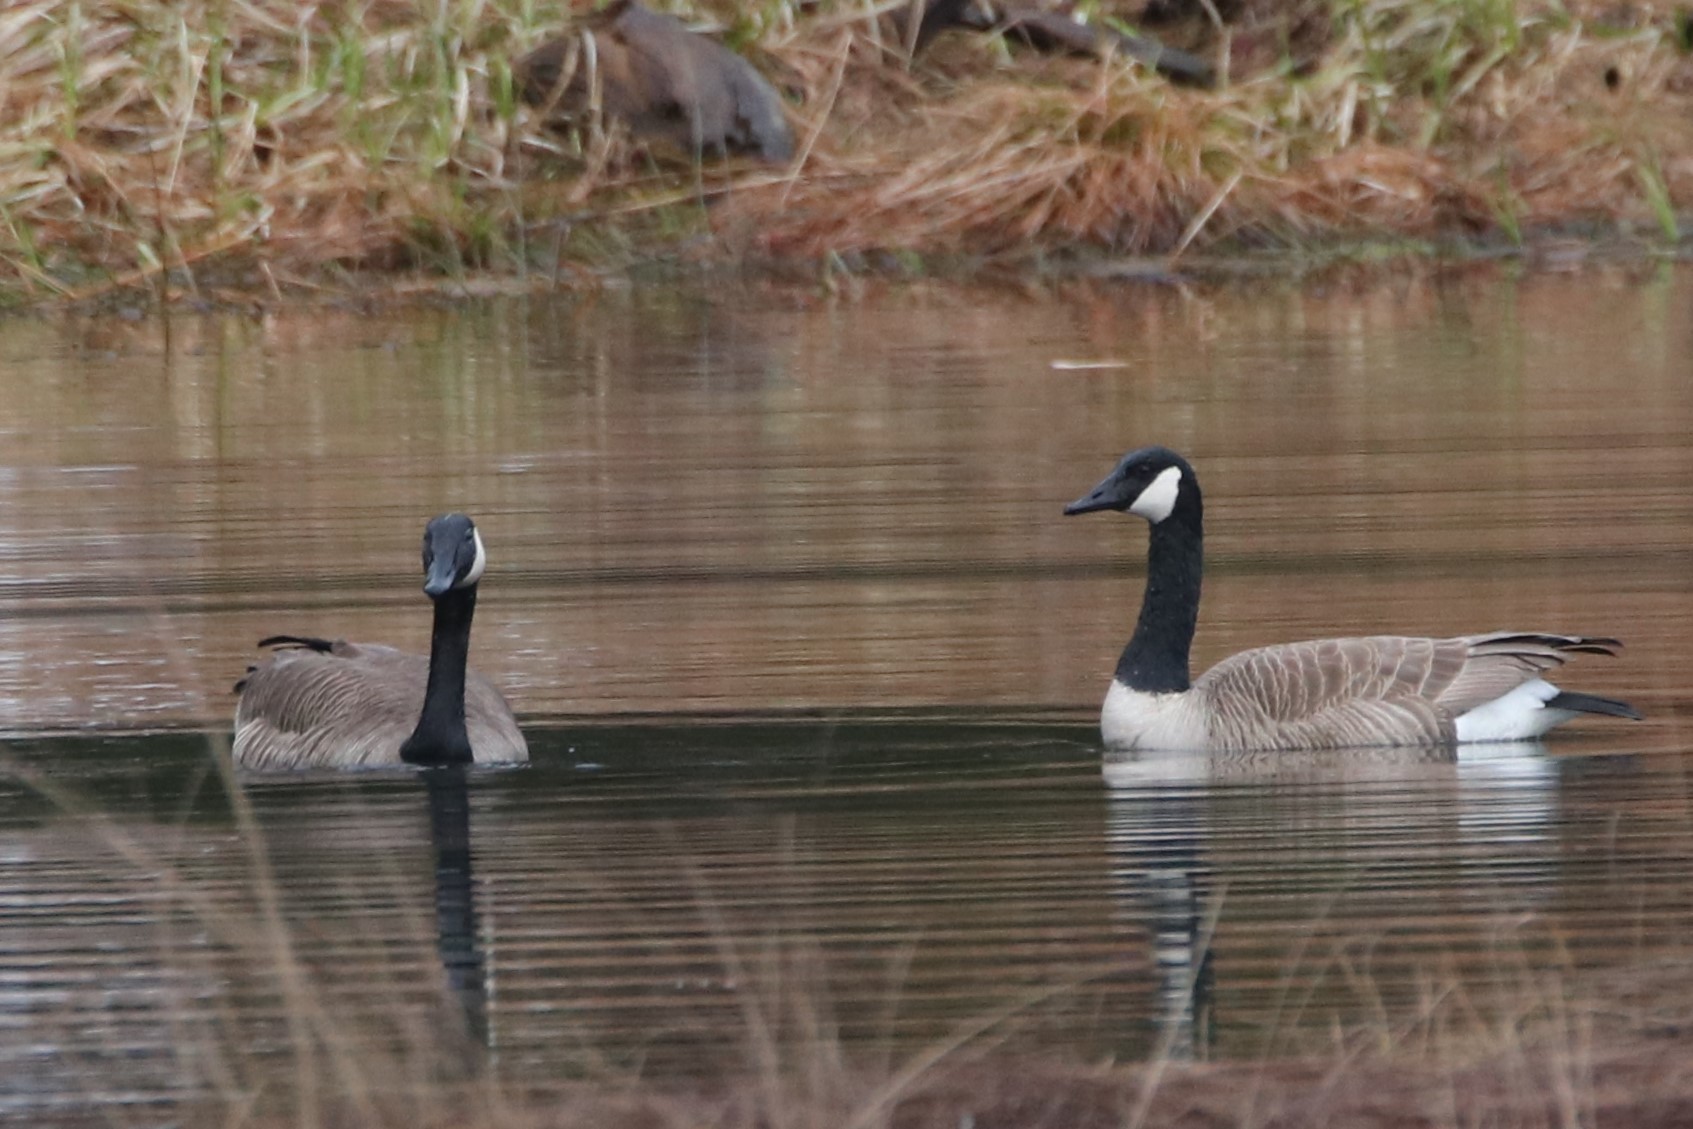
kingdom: Animalia
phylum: Chordata
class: Aves
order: Anseriformes
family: Anatidae
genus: Branta
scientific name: Branta canadensis
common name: Canada goose
